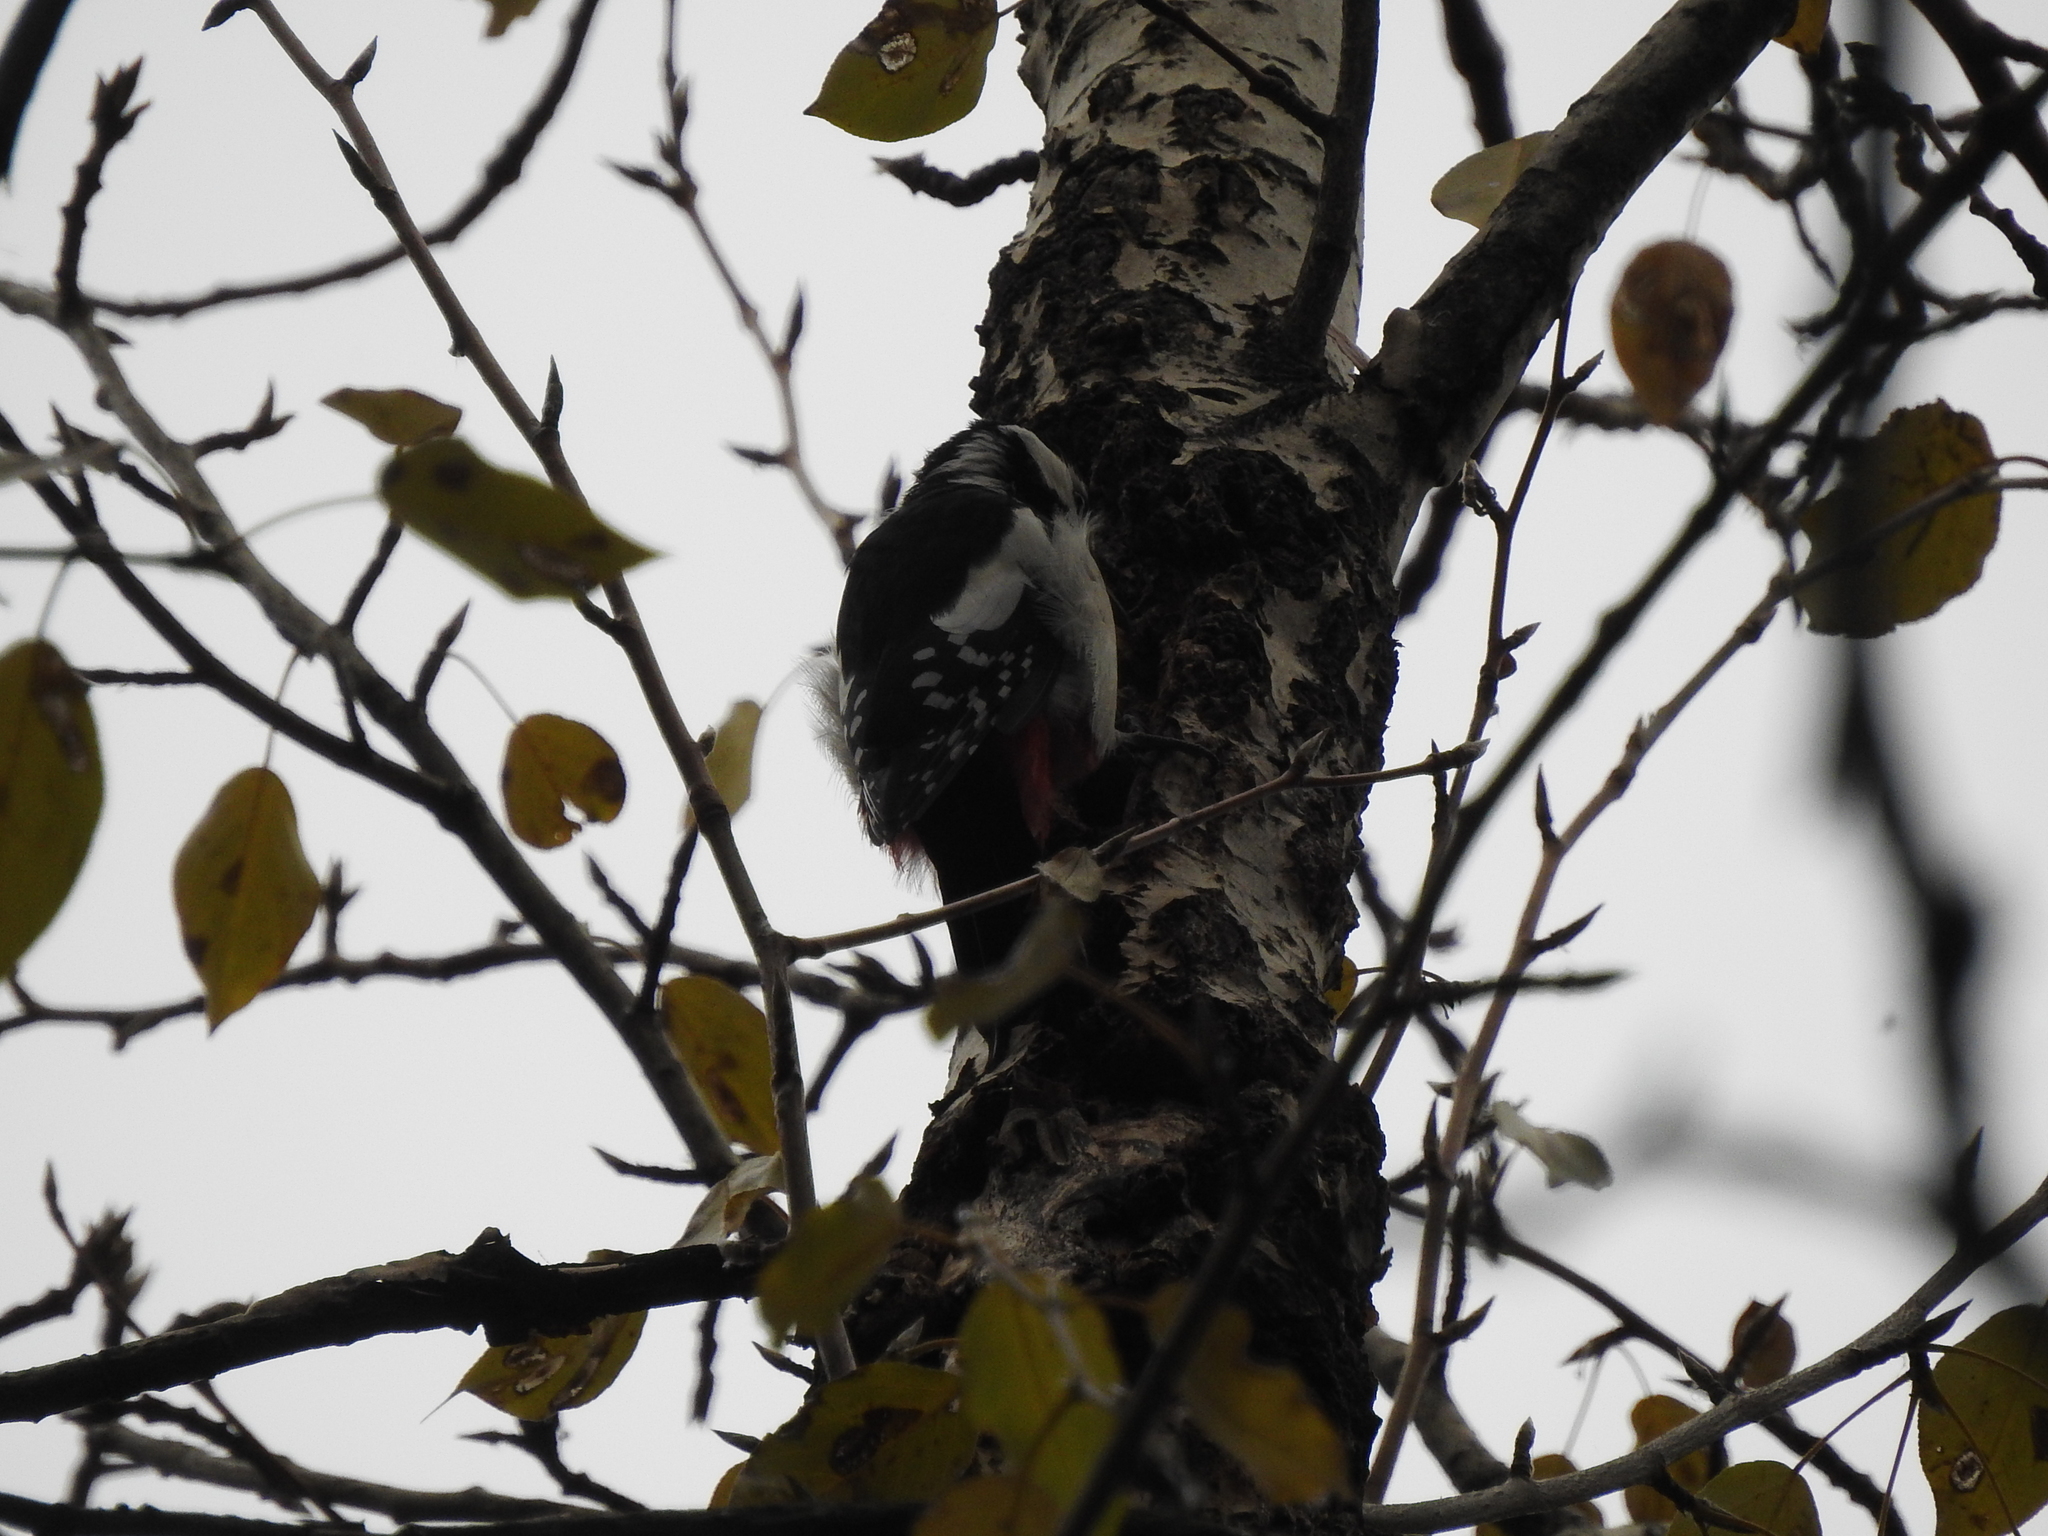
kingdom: Animalia
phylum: Chordata
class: Aves
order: Piciformes
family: Picidae
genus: Dendrocopos
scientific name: Dendrocopos major
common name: Great spotted woodpecker
